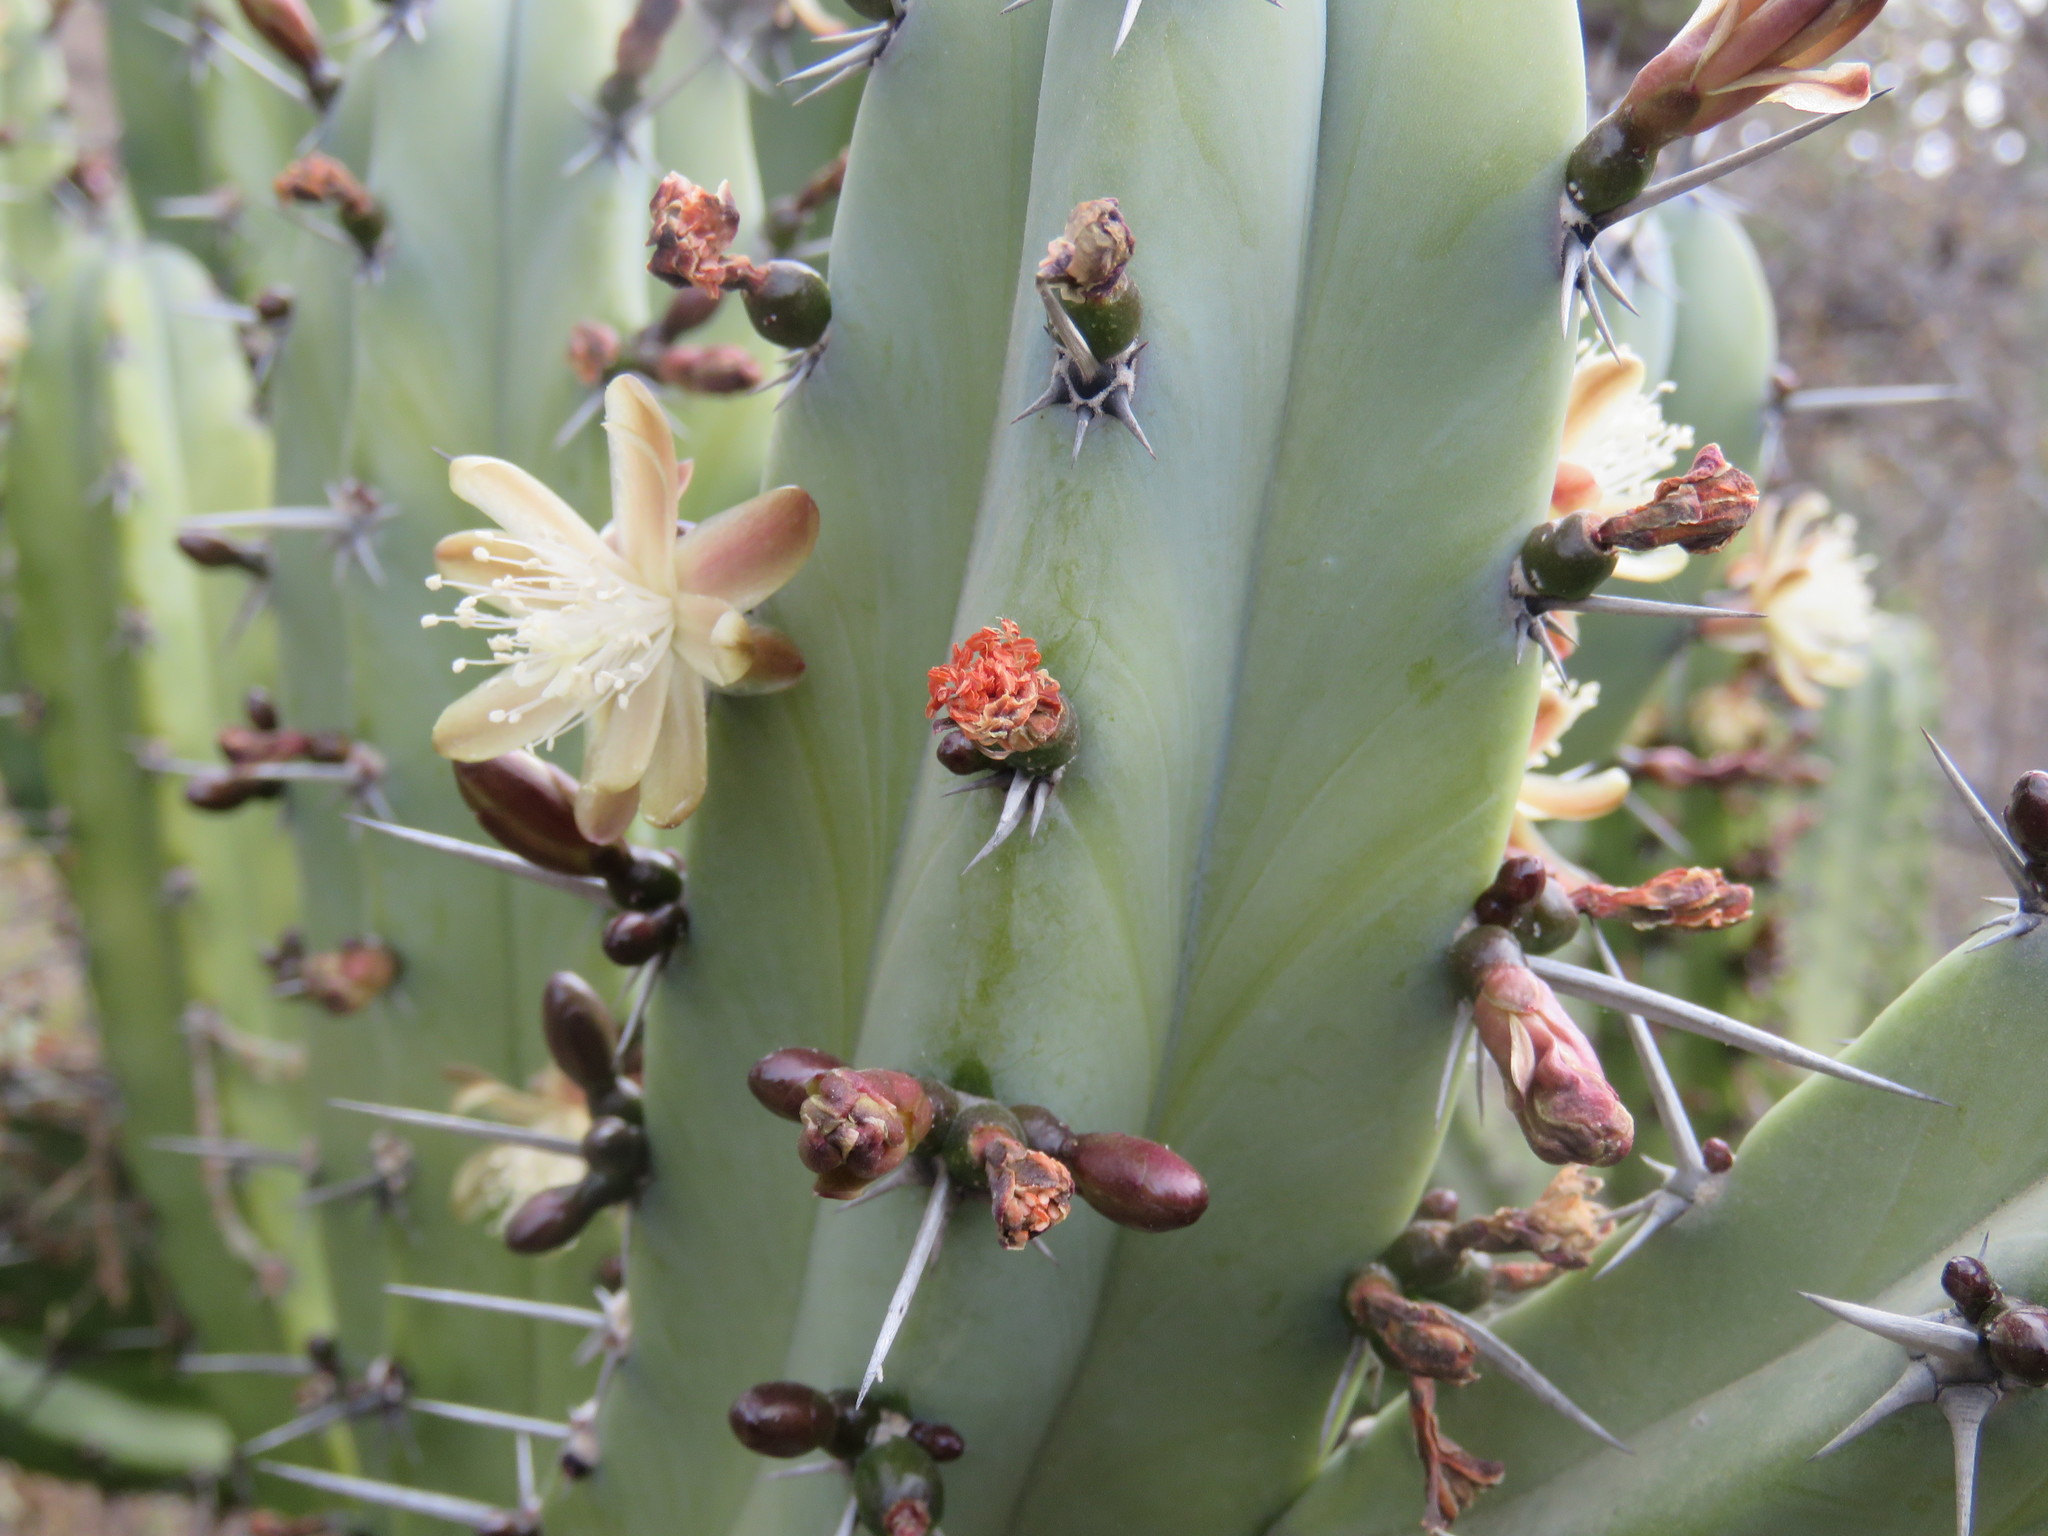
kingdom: Plantae
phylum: Tracheophyta
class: Magnoliopsida
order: Caryophyllales
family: Cactaceae
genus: Myrtillocactus
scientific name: Myrtillocactus geometrizans
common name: Bilberry cactus
